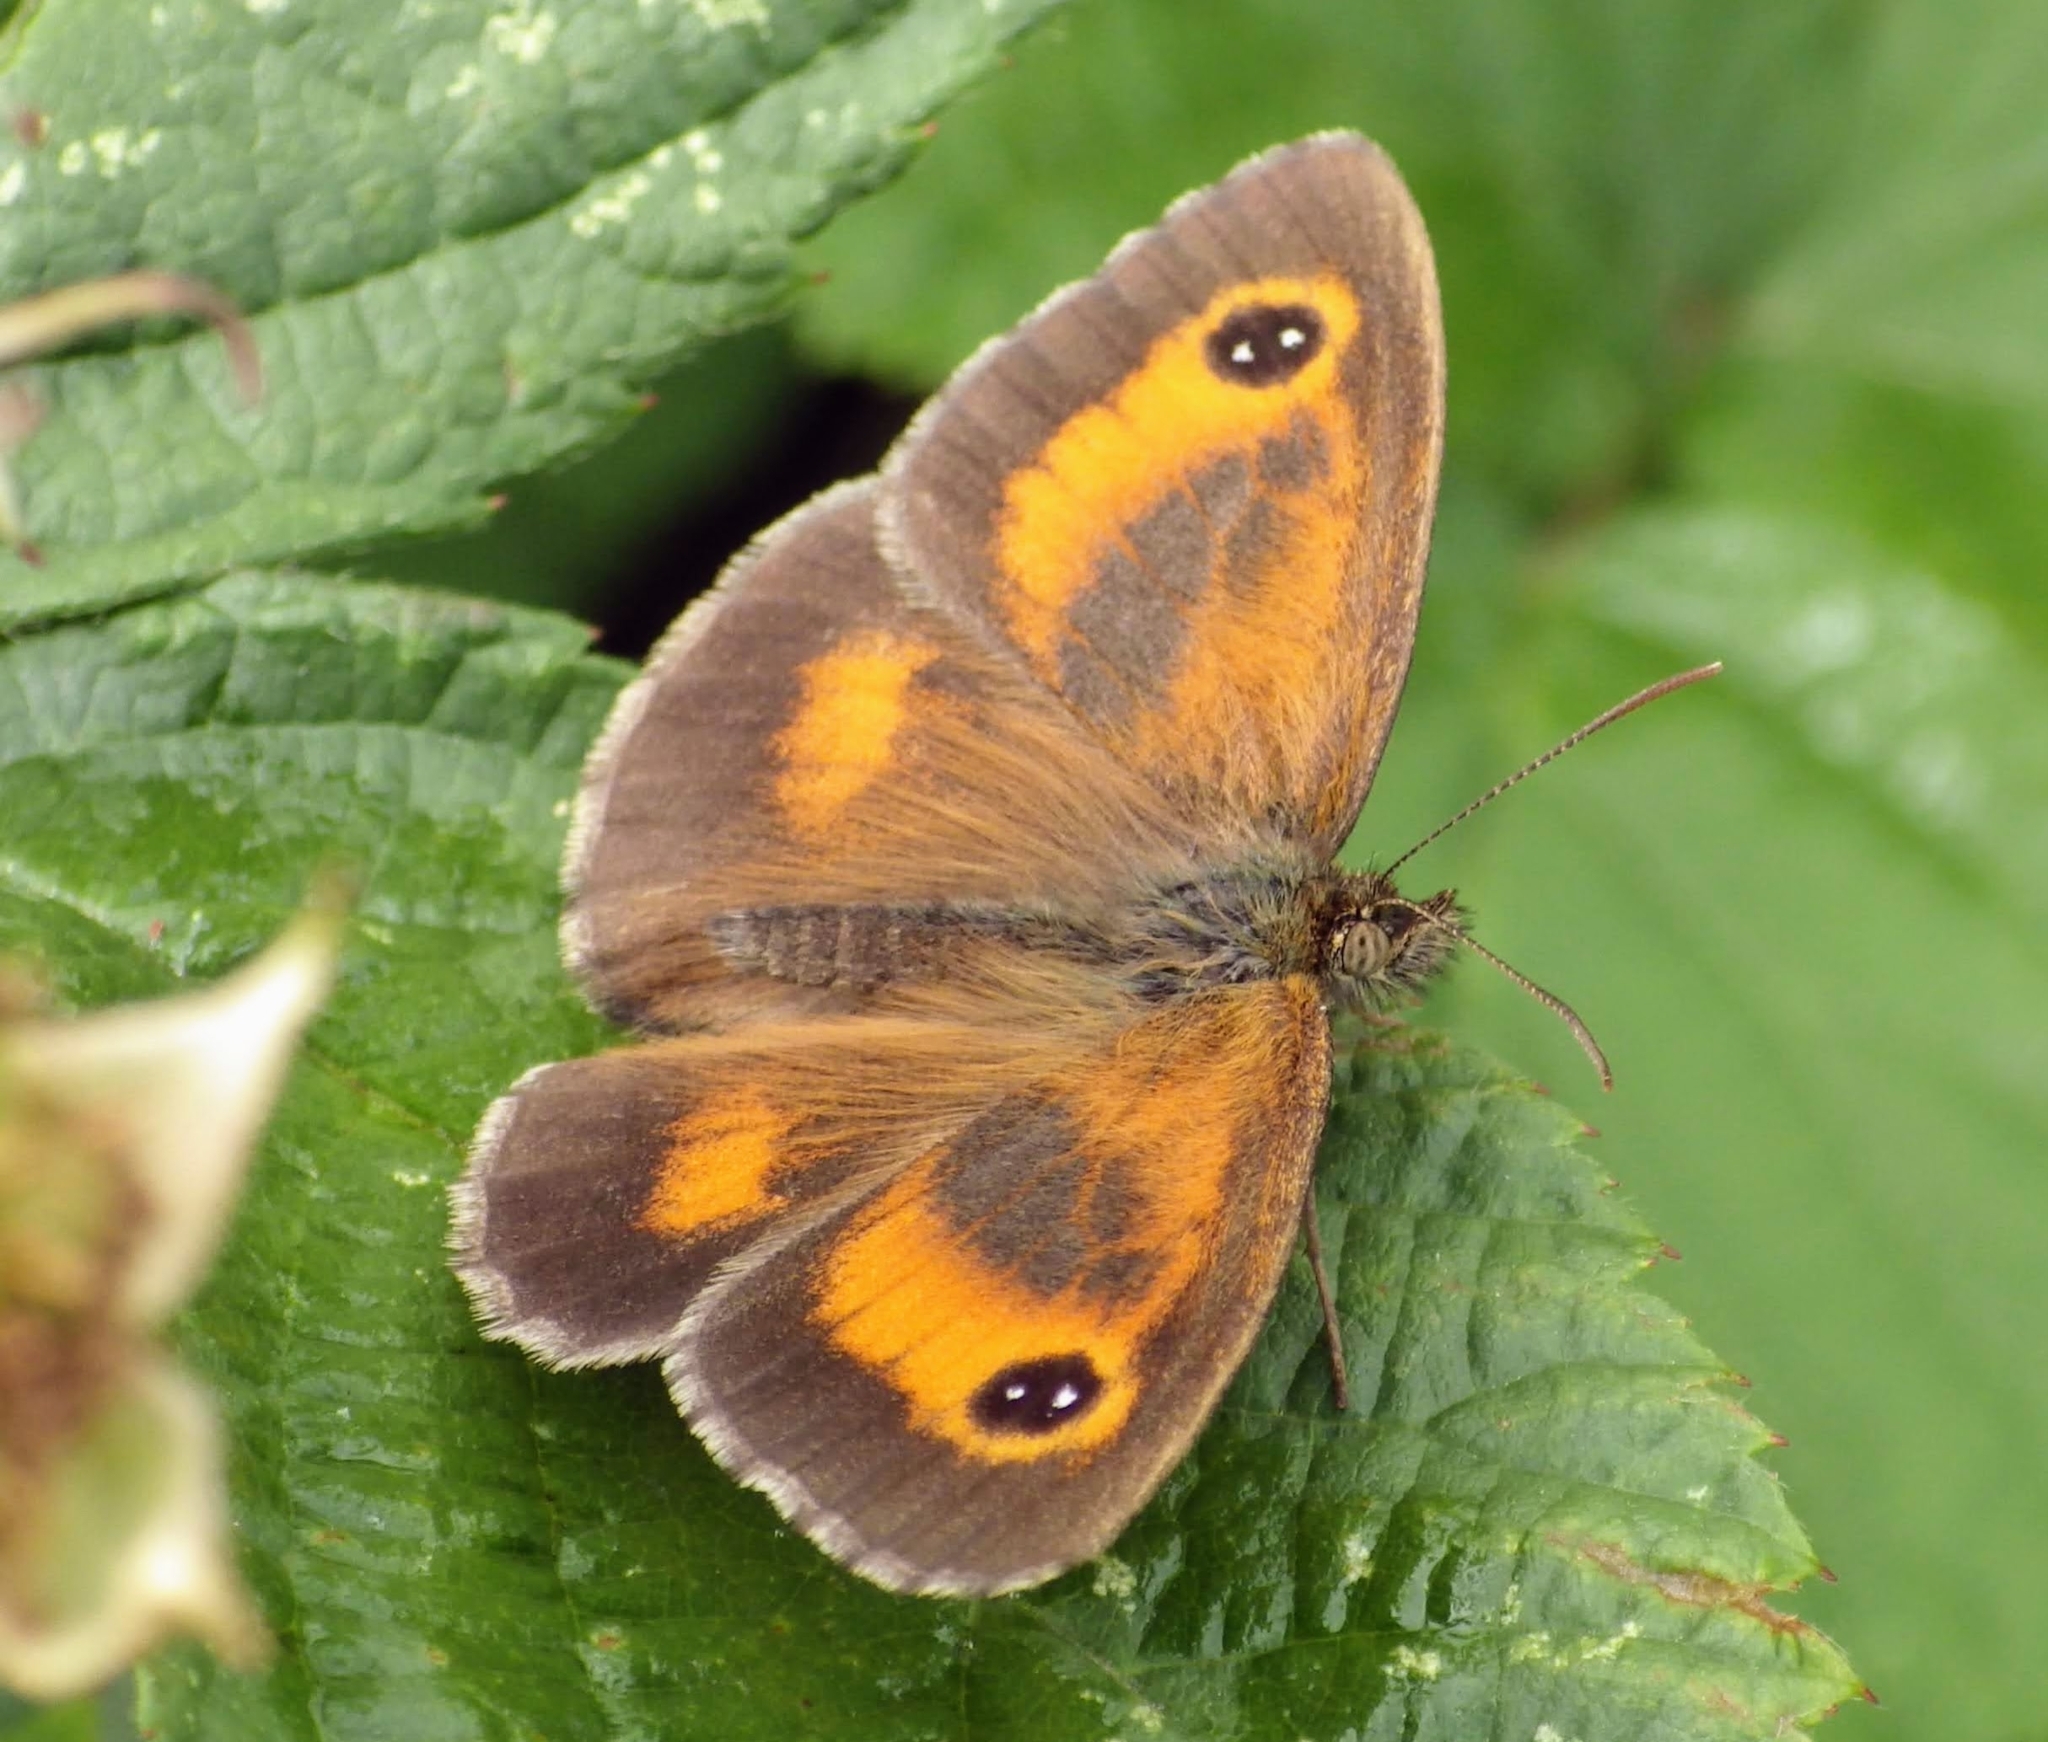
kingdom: Animalia
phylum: Arthropoda
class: Insecta
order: Lepidoptera
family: Nymphalidae
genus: Pyronia
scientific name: Pyronia tithonus
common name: Gatekeeper
